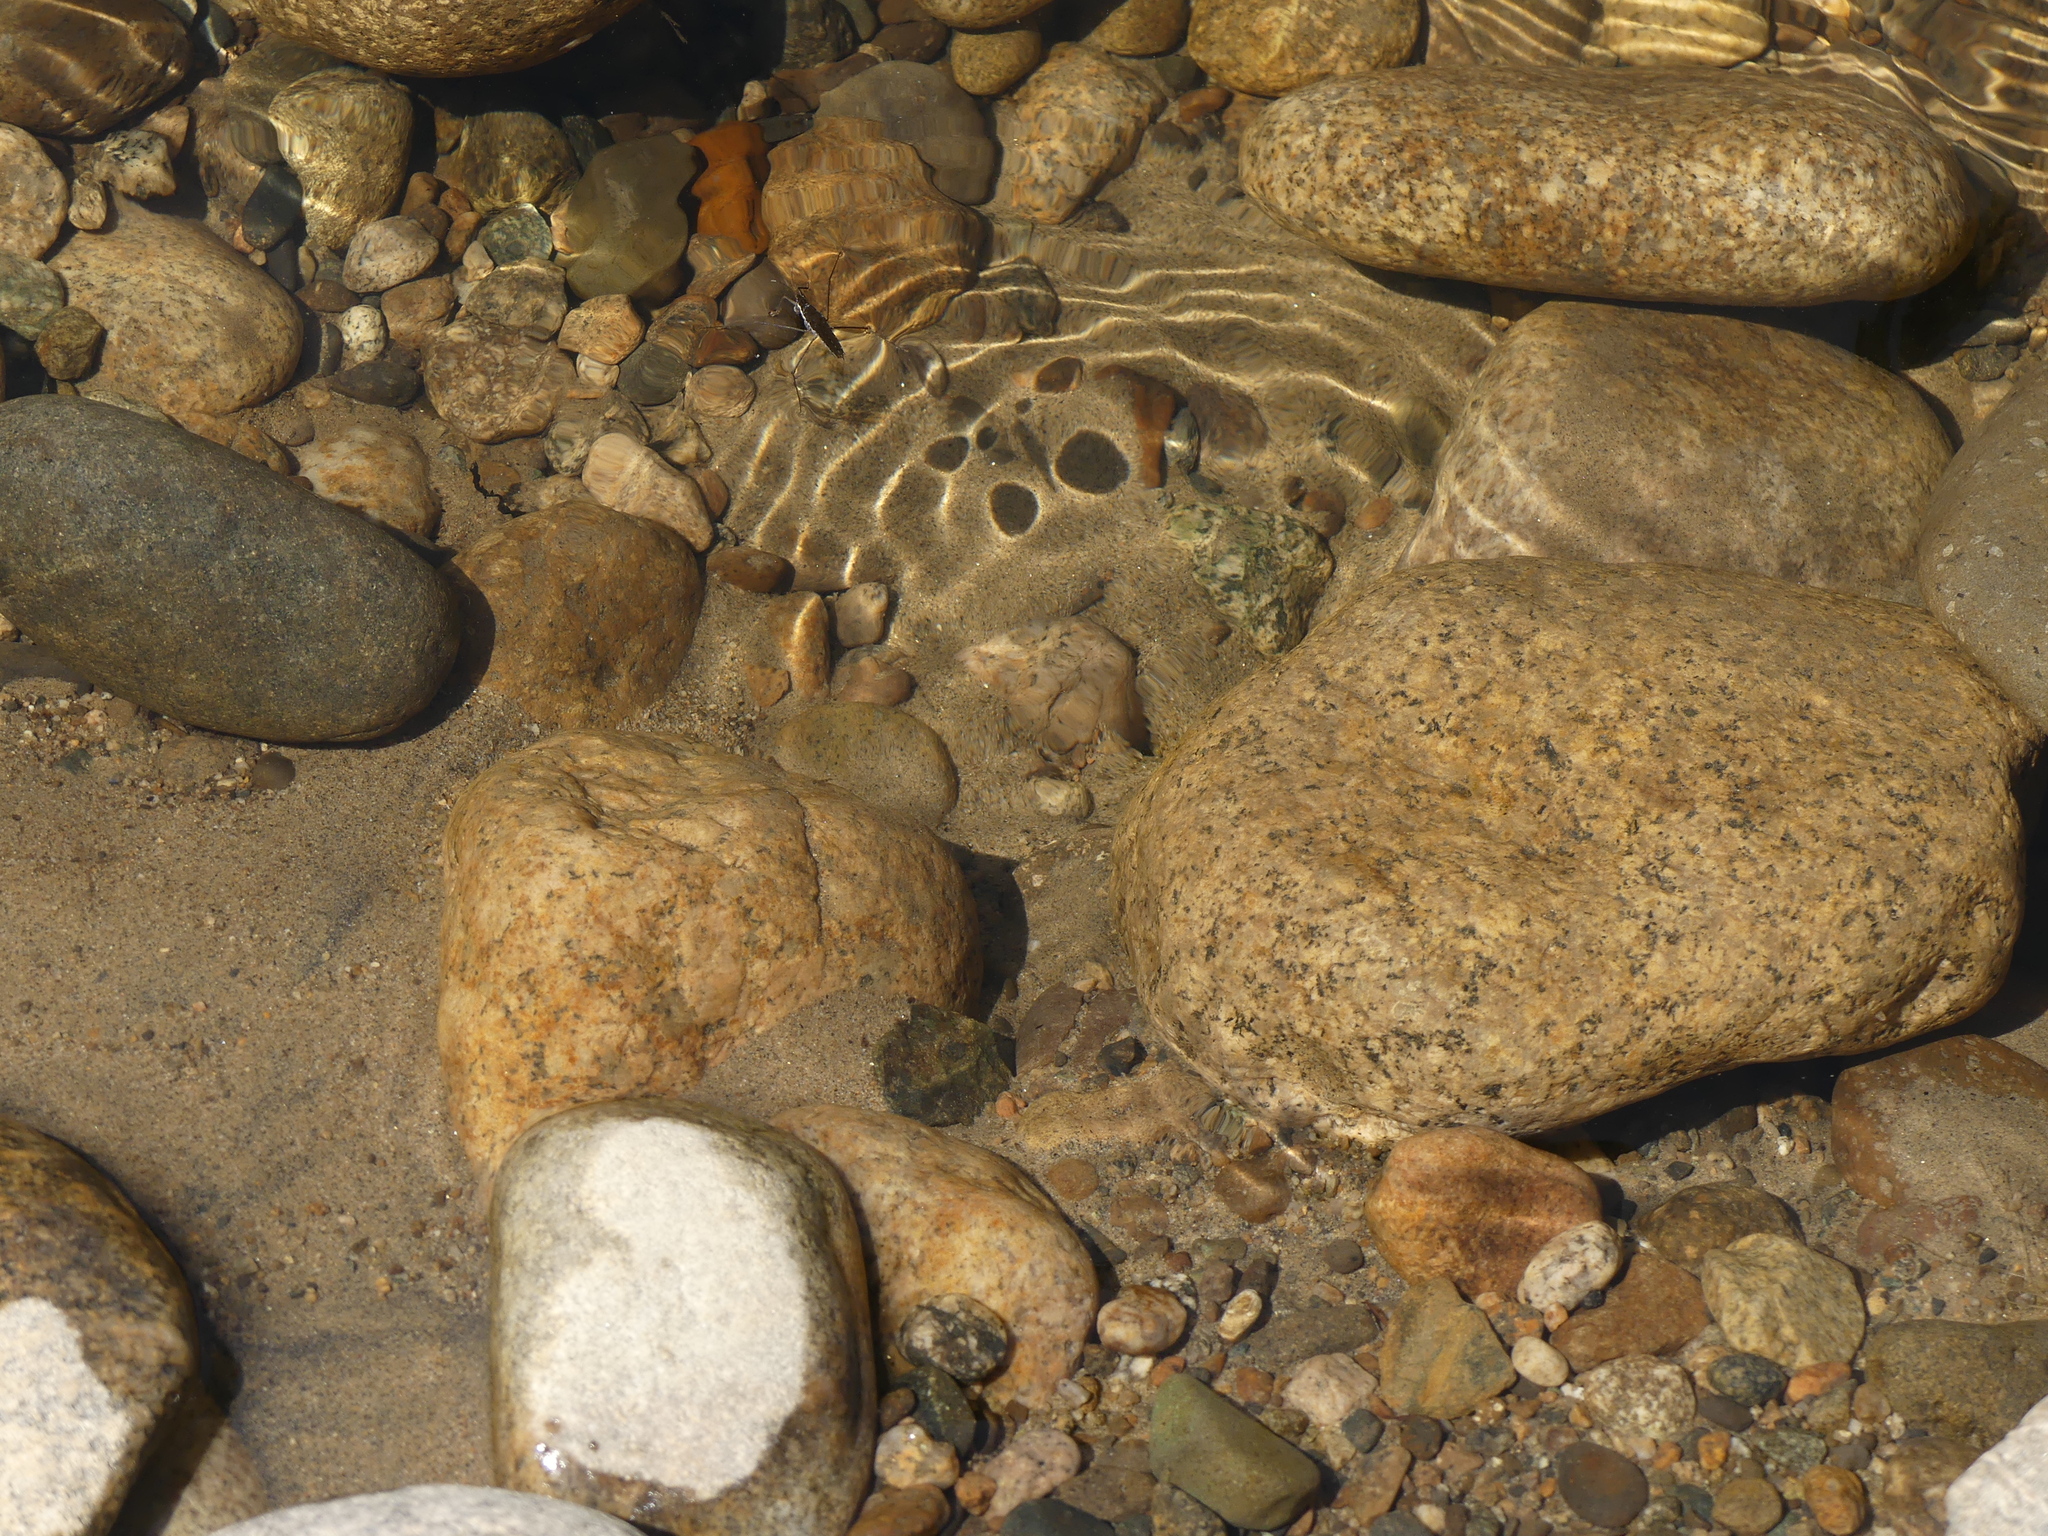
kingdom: Animalia
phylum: Arthropoda
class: Insecta
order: Hemiptera
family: Gerridae
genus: Aquarius
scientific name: Aquarius remigis
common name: Common water strider
